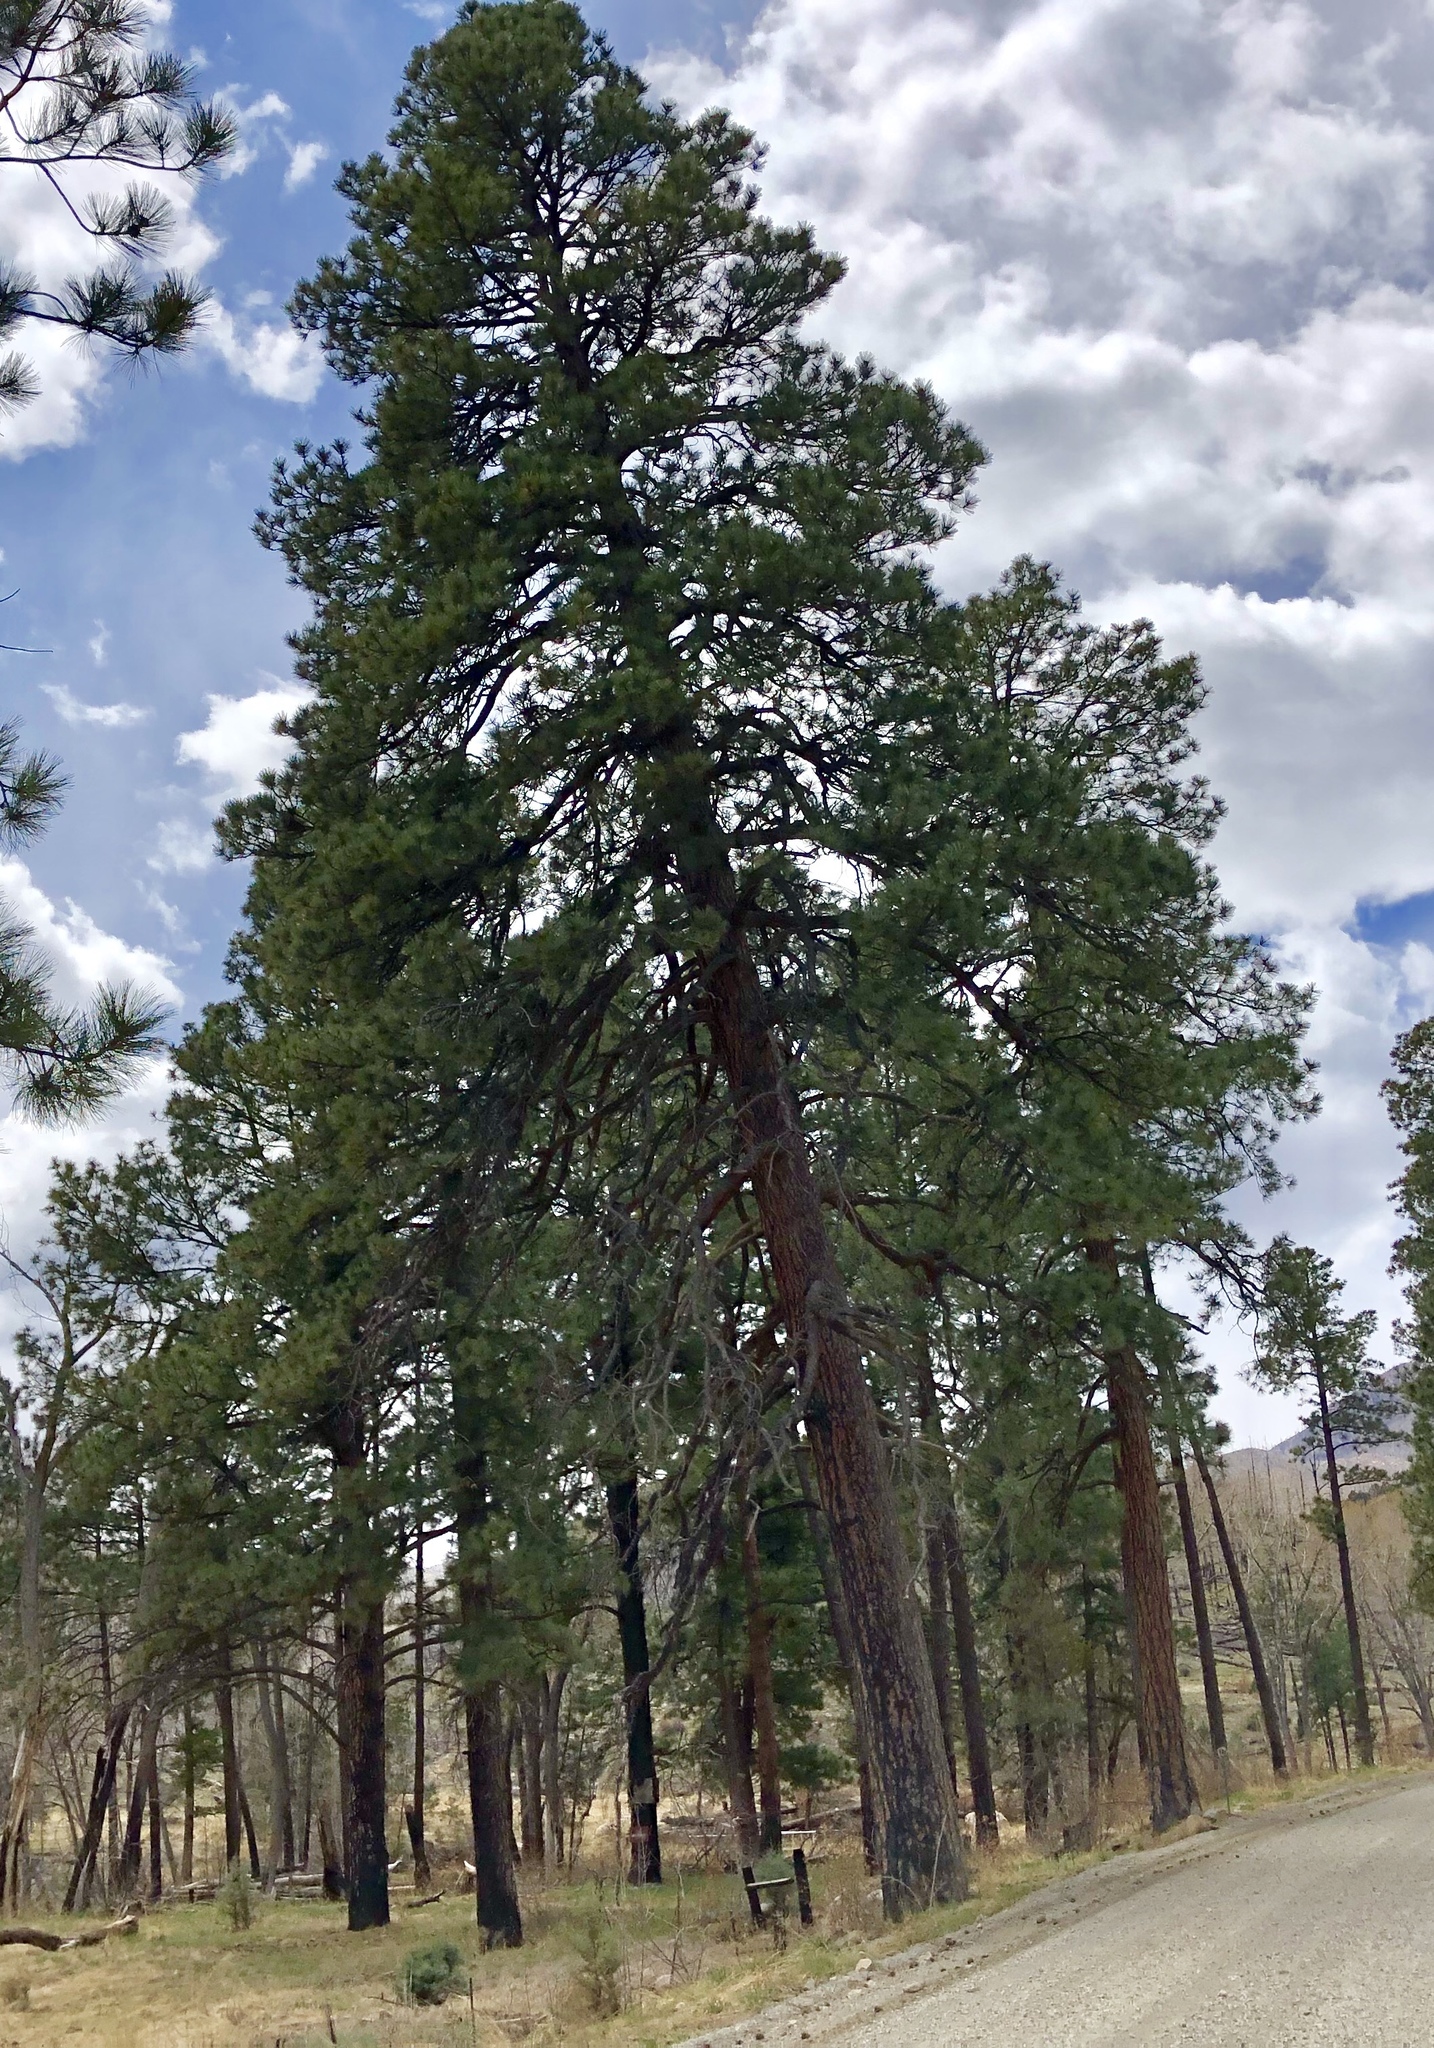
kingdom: Plantae
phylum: Tracheophyta
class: Pinopsida
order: Pinales
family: Pinaceae
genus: Pinus
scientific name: Pinus ponderosa
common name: Western yellow-pine
